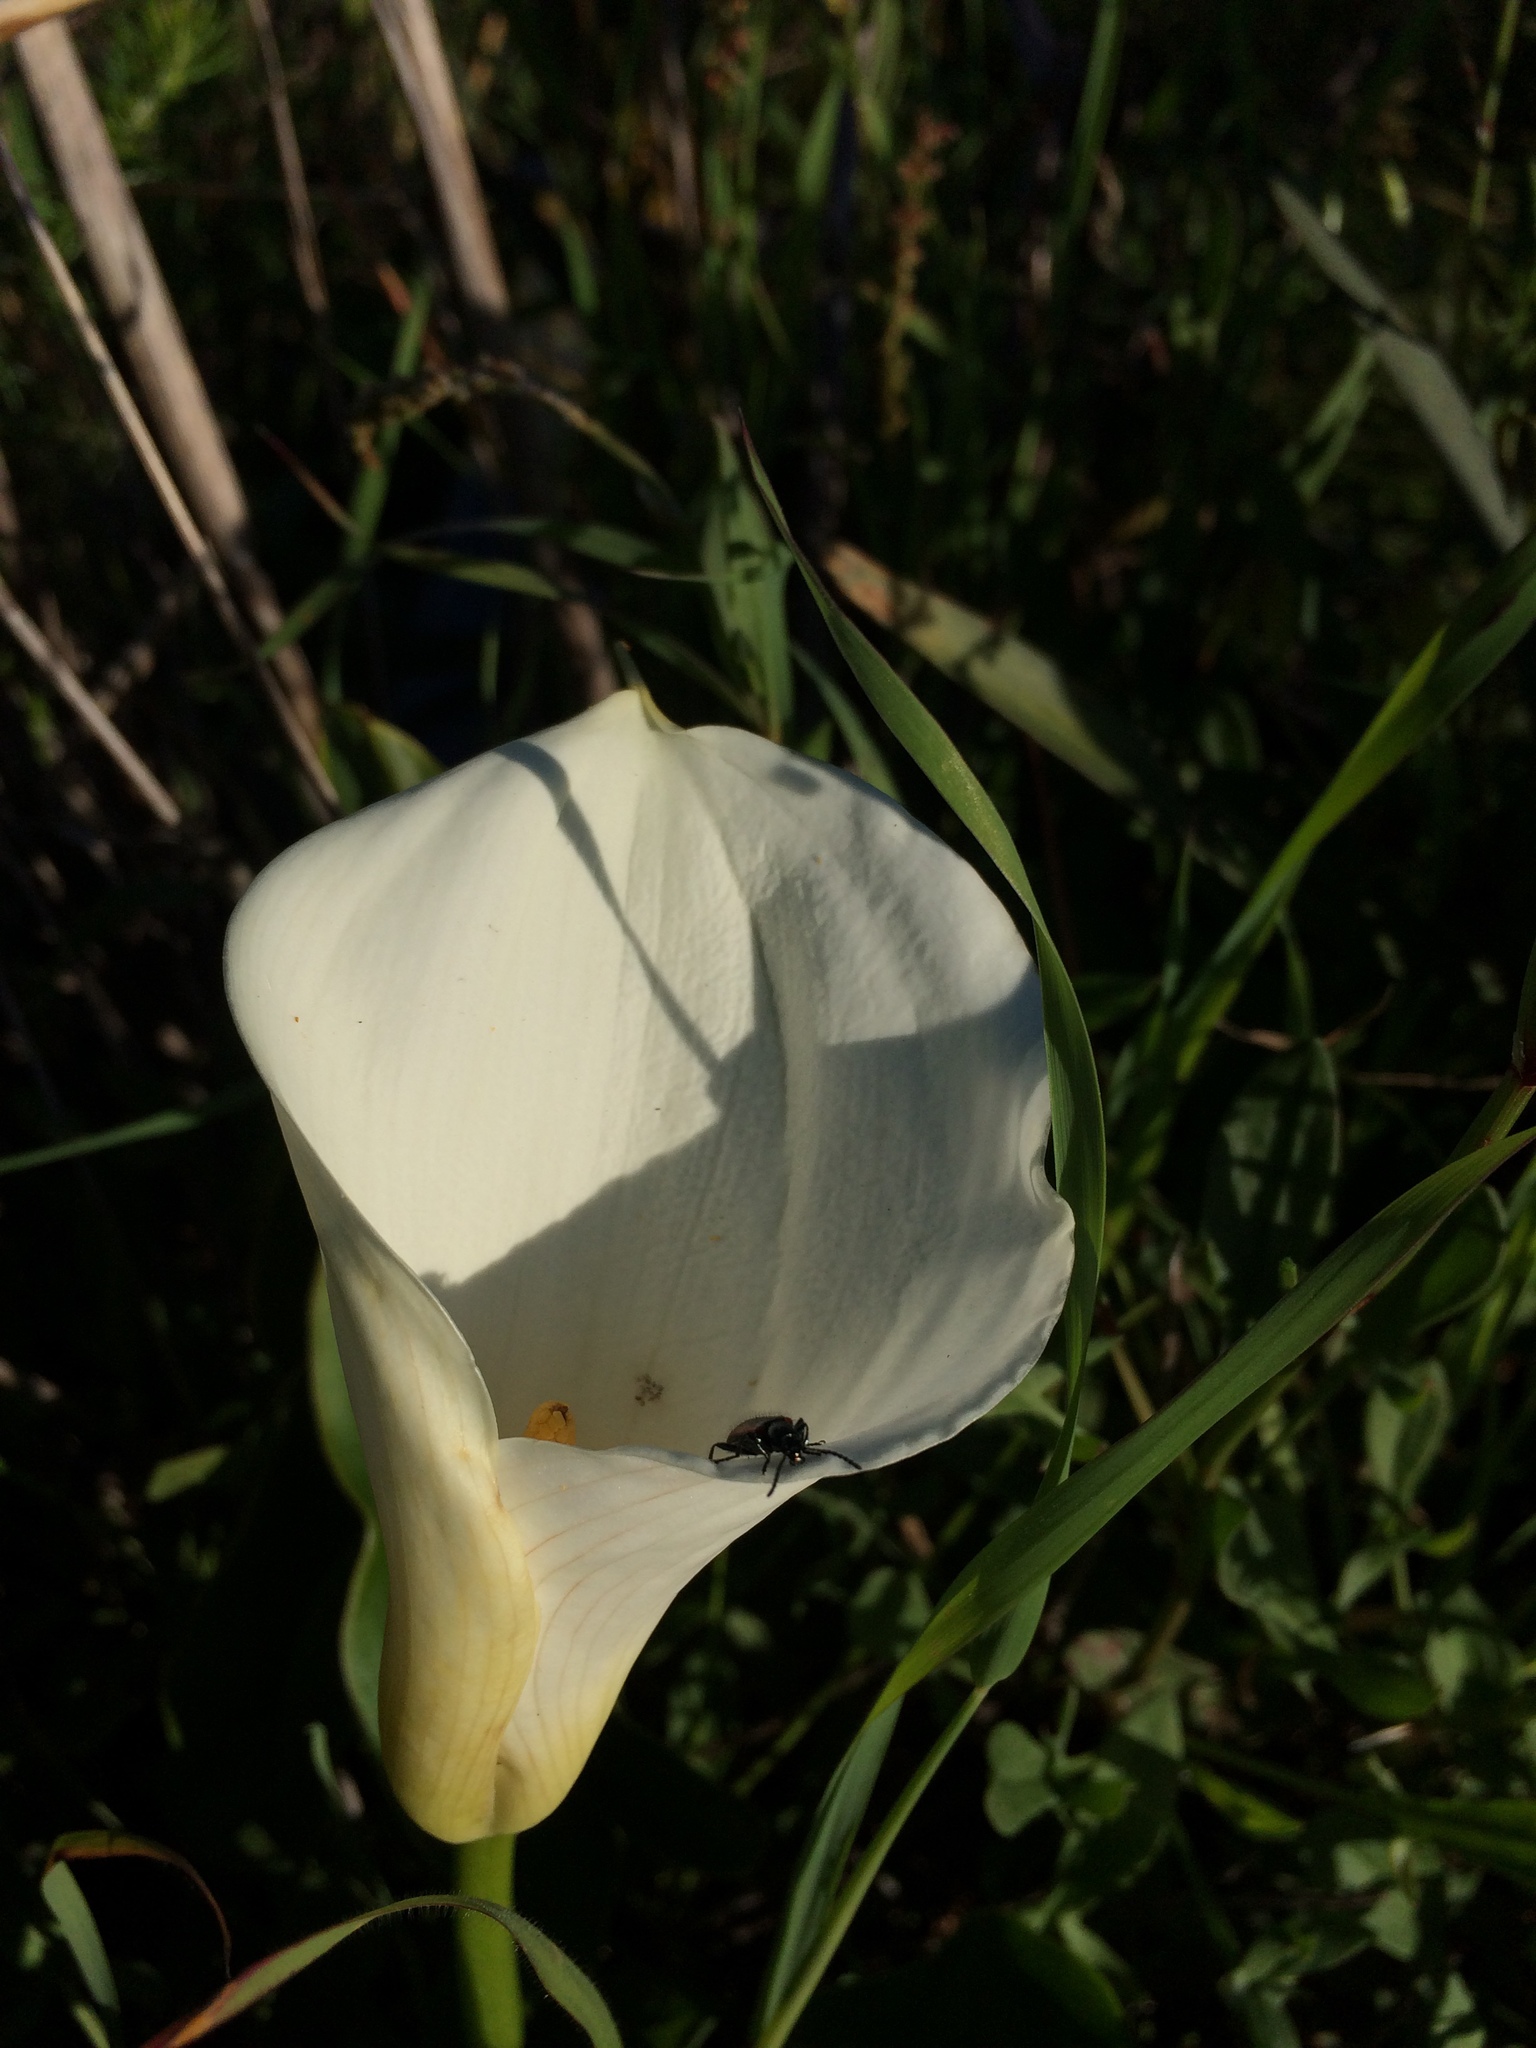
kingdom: Plantae
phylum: Tracheophyta
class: Liliopsida
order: Alismatales
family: Araceae
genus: Zantedeschia
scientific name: Zantedeschia aethiopica
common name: Altar-lily
